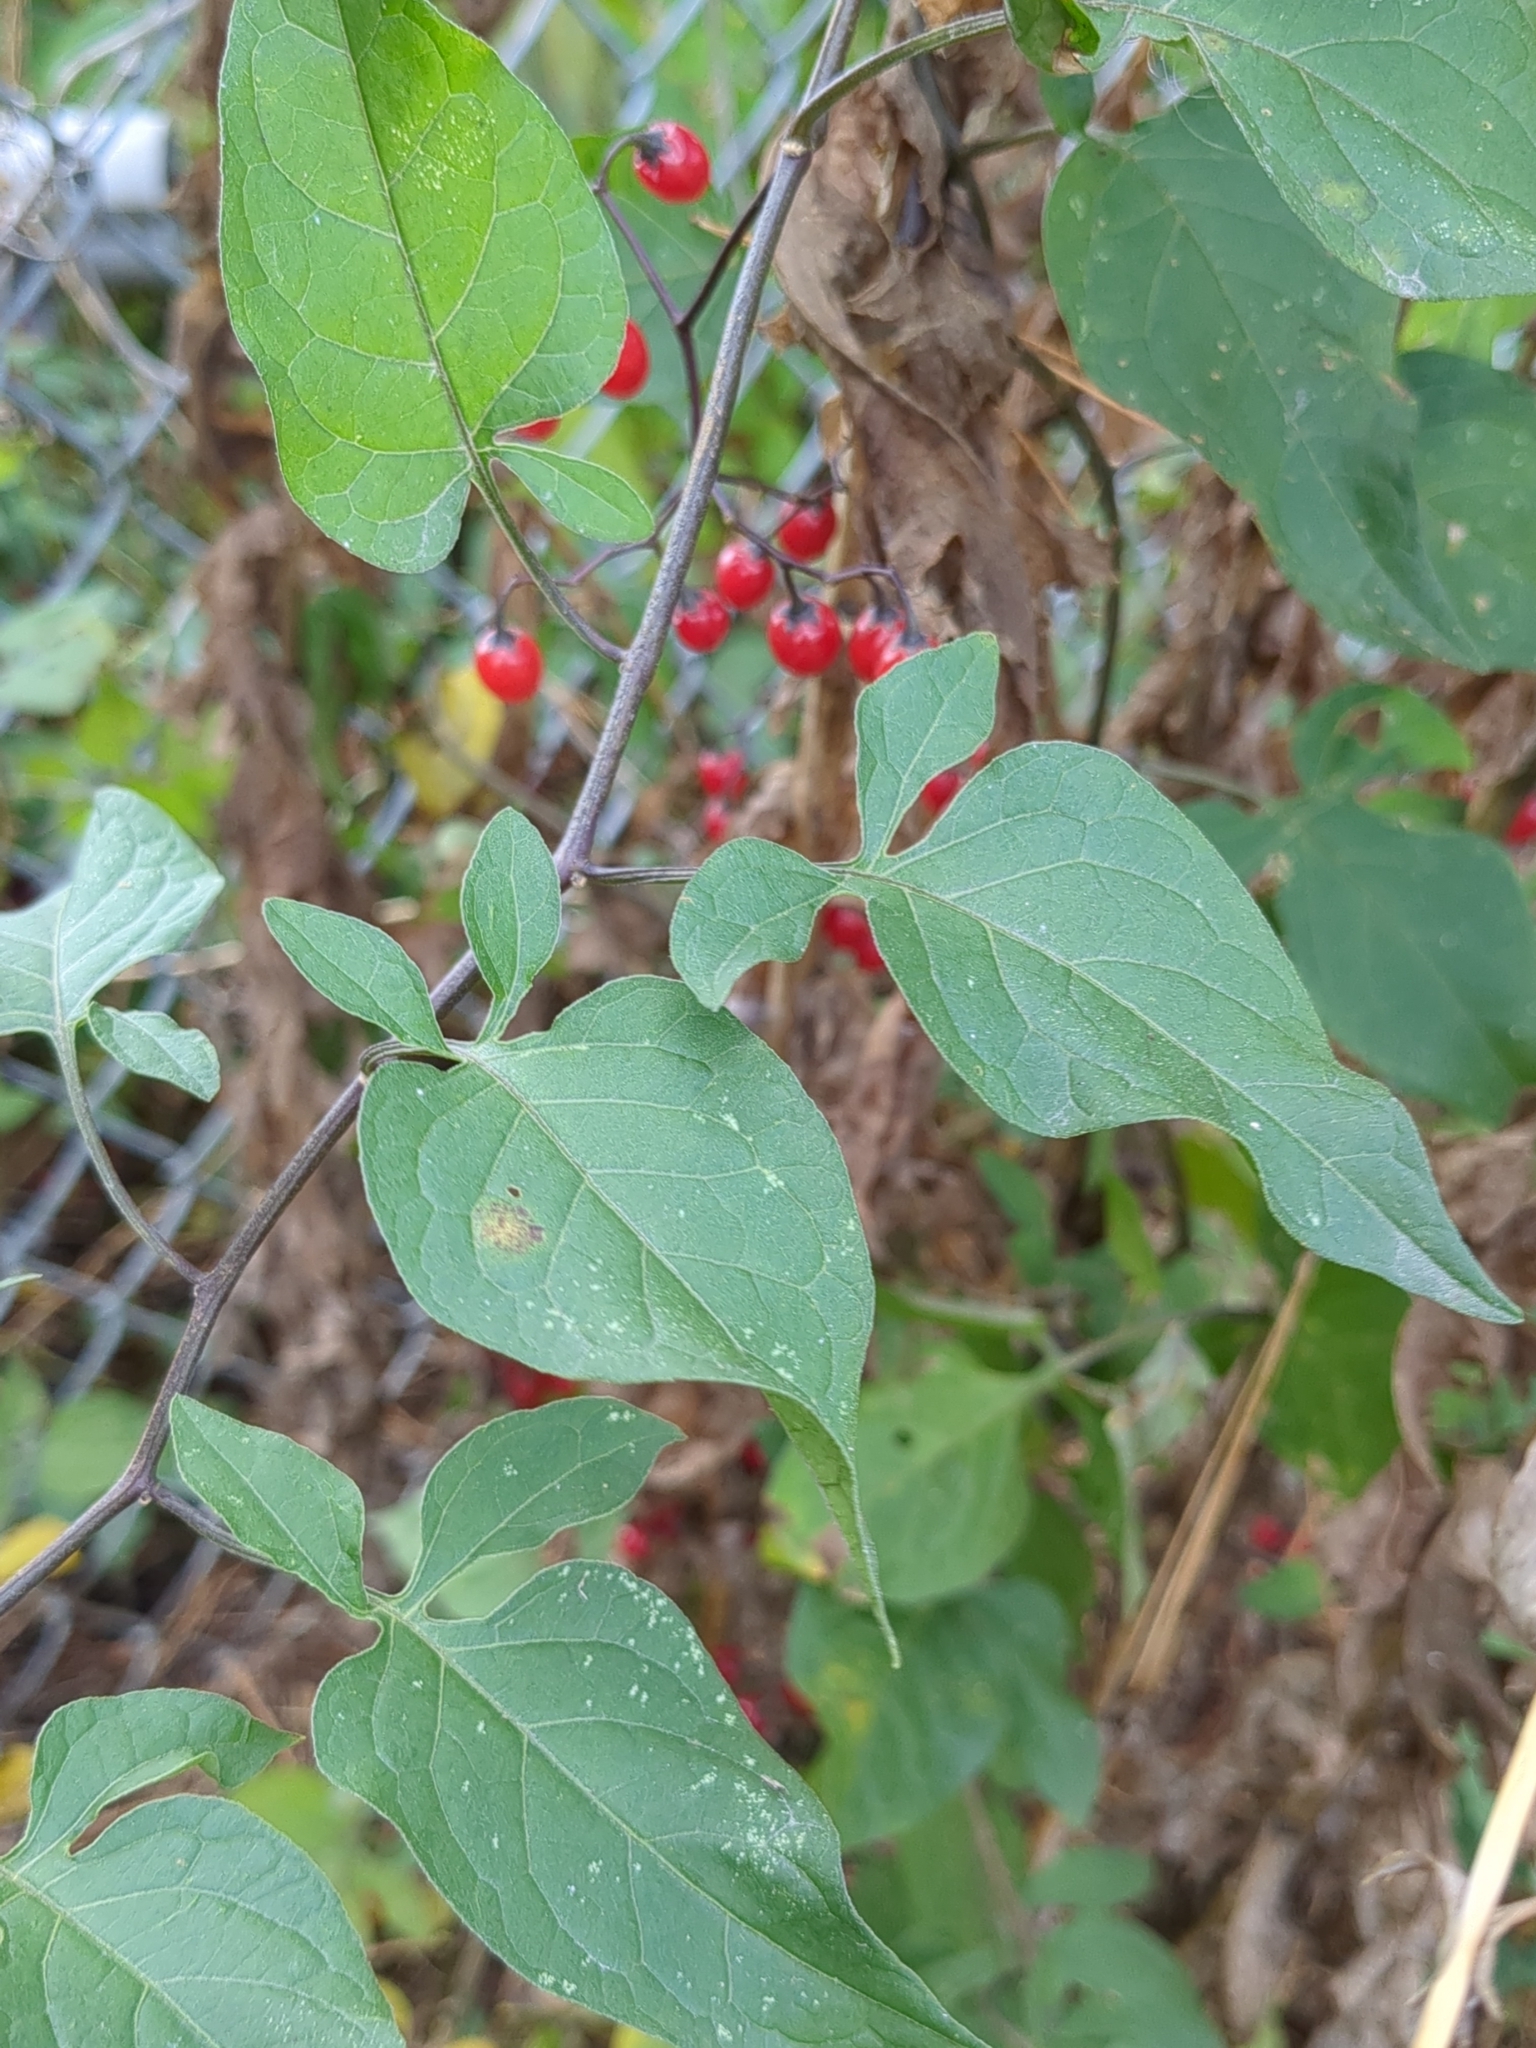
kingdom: Plantae
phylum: Tracheophyta
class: Magnoliopsida
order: Solanales
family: Solanaceae
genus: Solanum
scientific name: Solanum dulcamara
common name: Climbing nightshade
